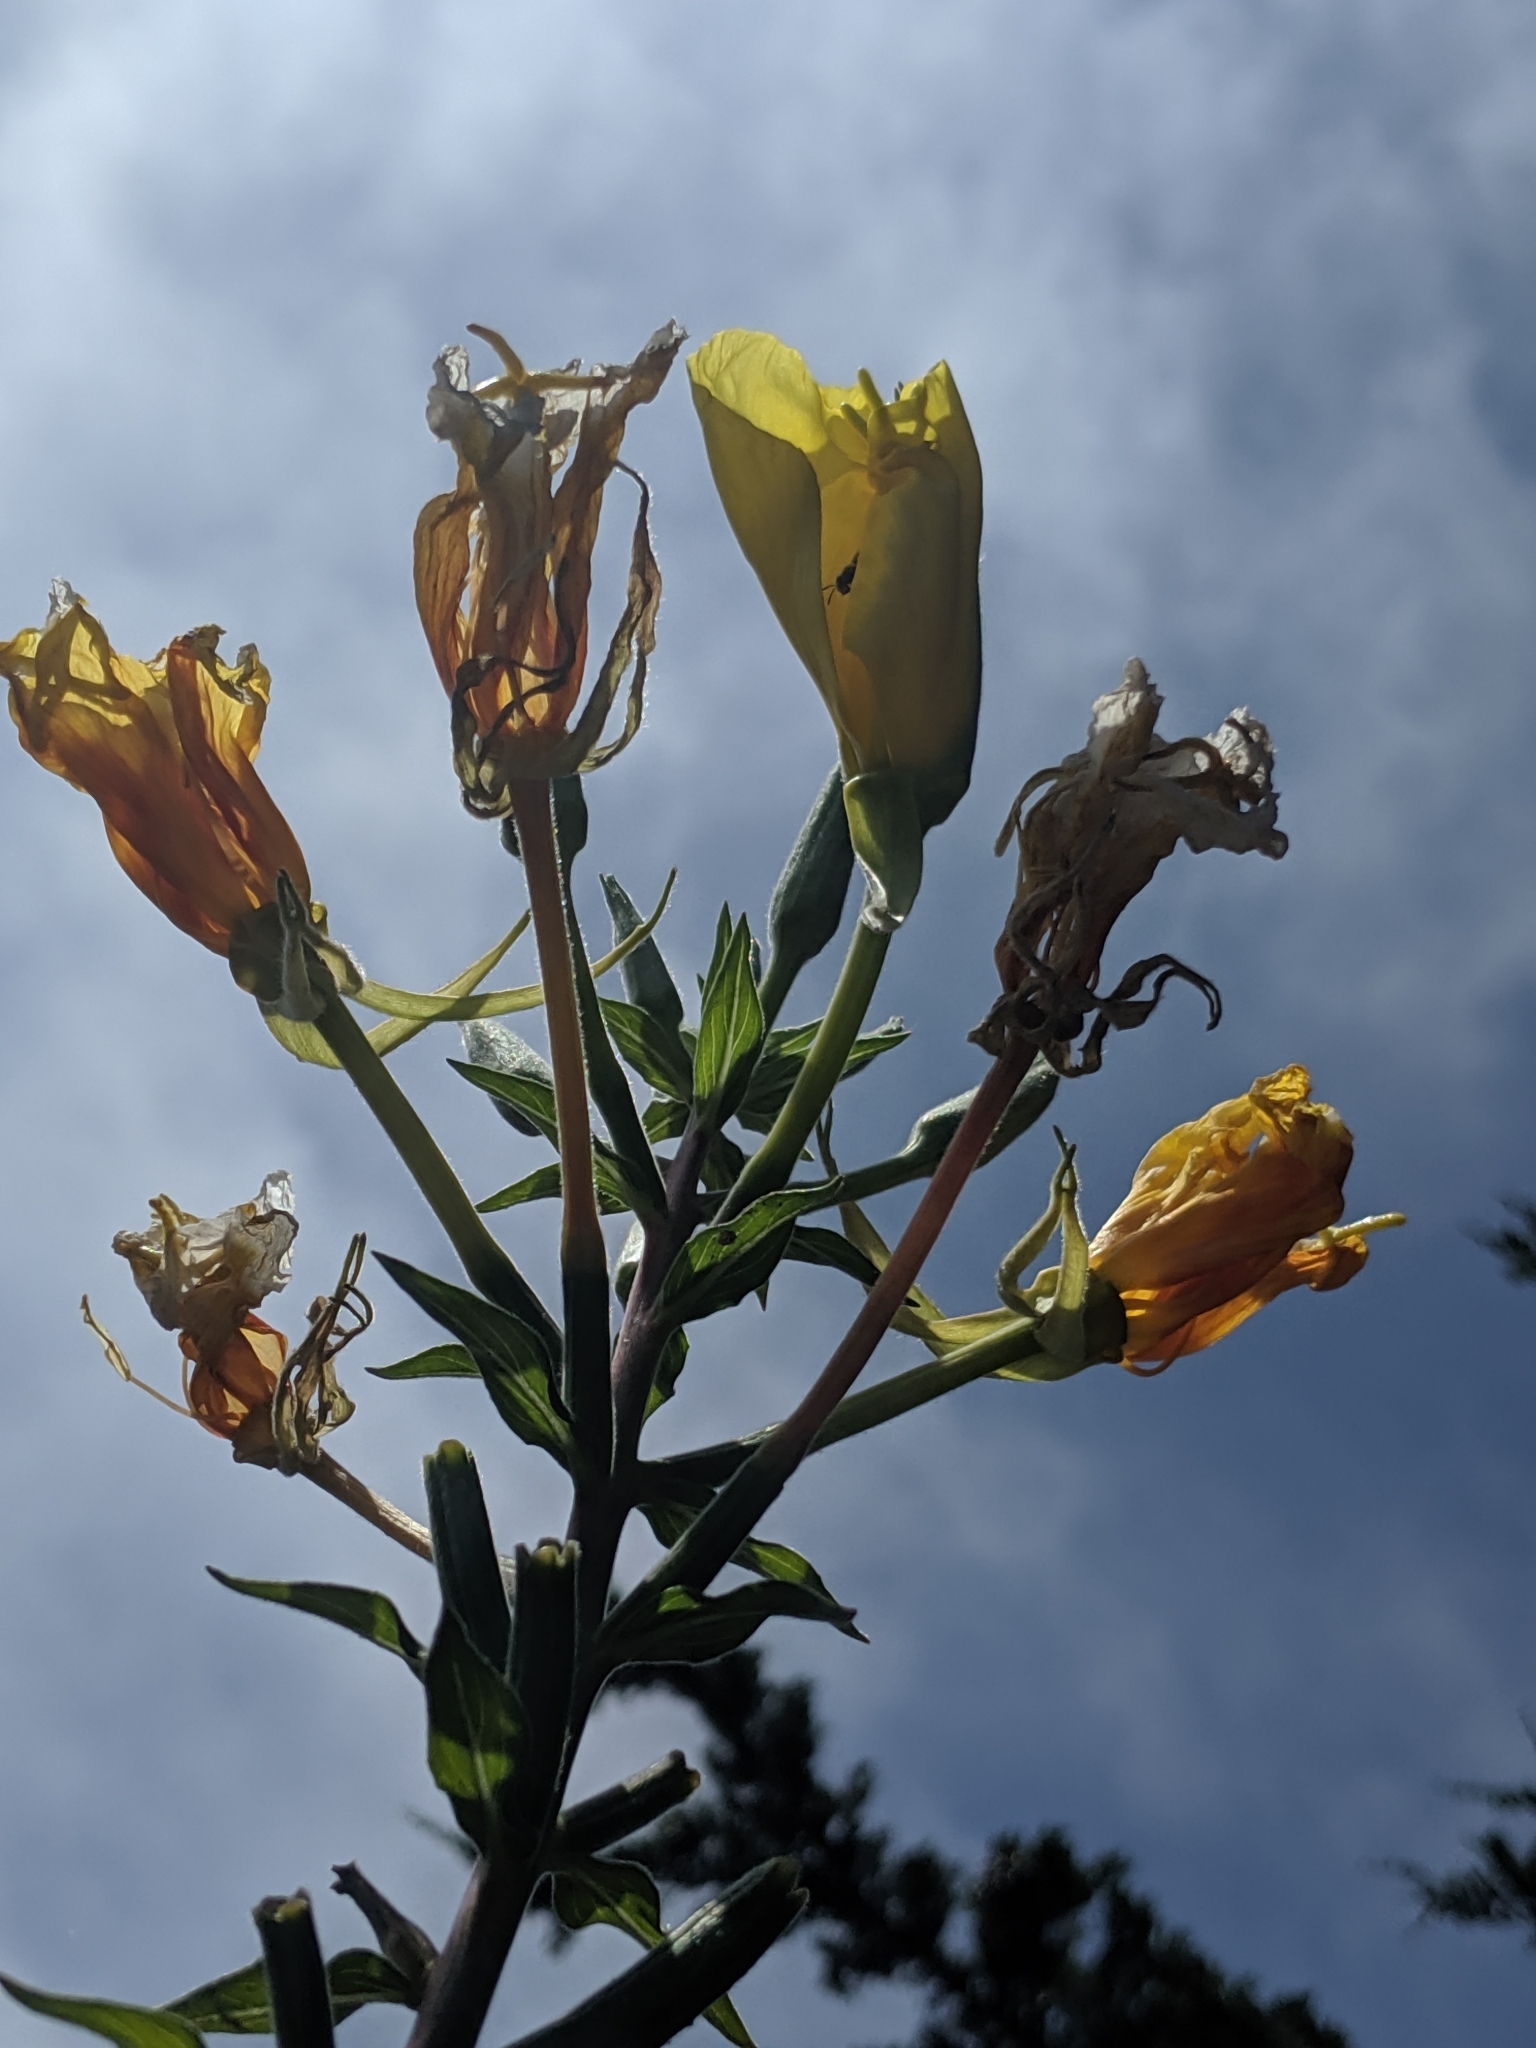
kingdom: Plantae
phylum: Tracheophyta
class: Magnoliopsida
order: Myrtales
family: Onagraceae
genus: Oenothera
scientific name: Oenothera elata
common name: Hooker's evening-primrose
